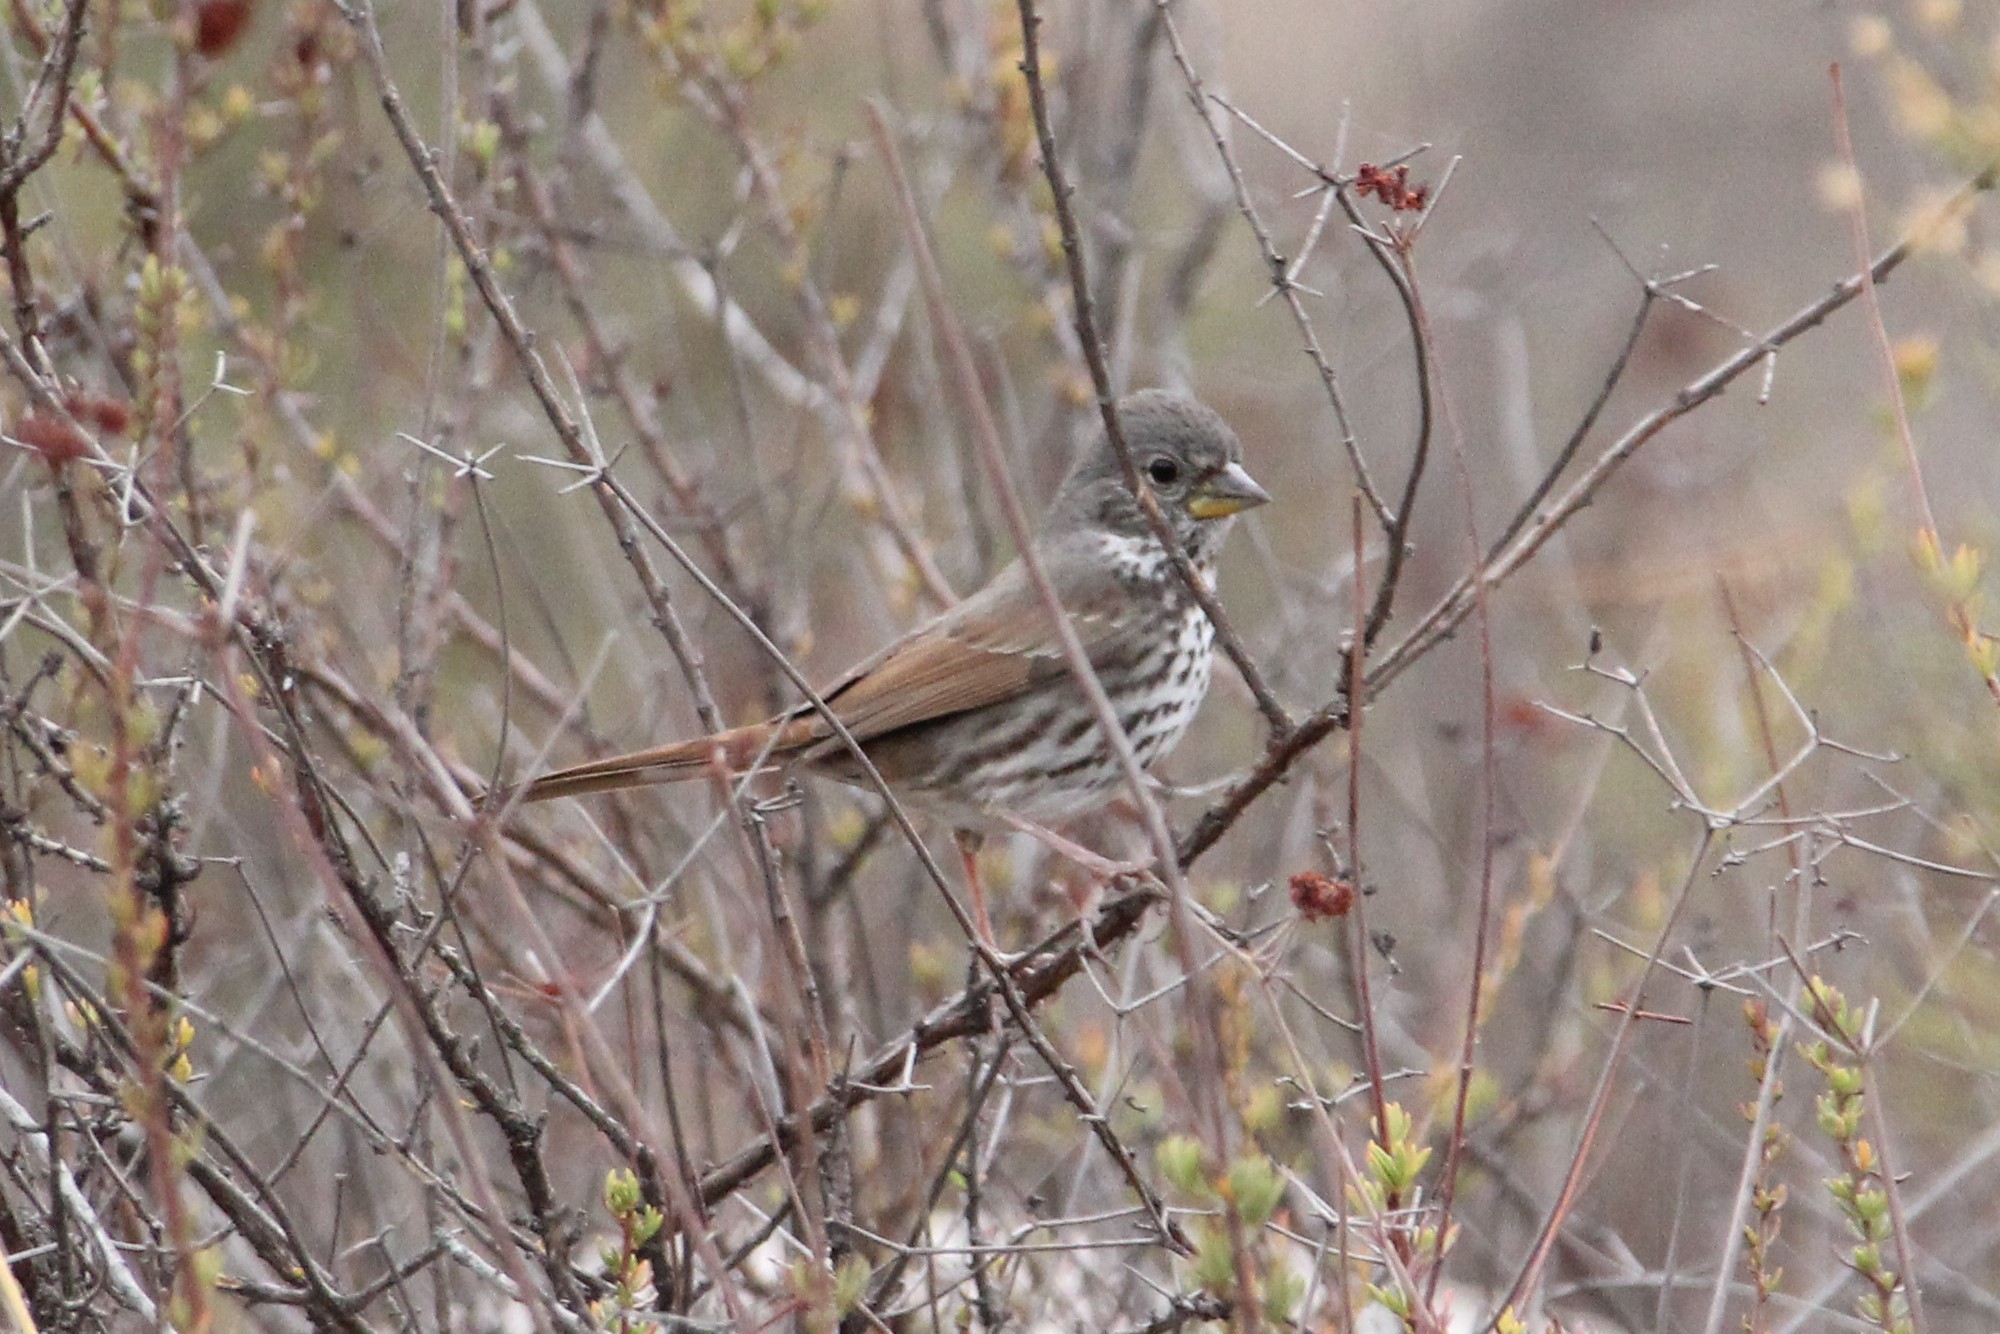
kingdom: Animalia
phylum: Chordata
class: Aves
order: Passeriformes
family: Passerellidae
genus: Passerella
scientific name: Passerella iliaca
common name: Fox sparrow
